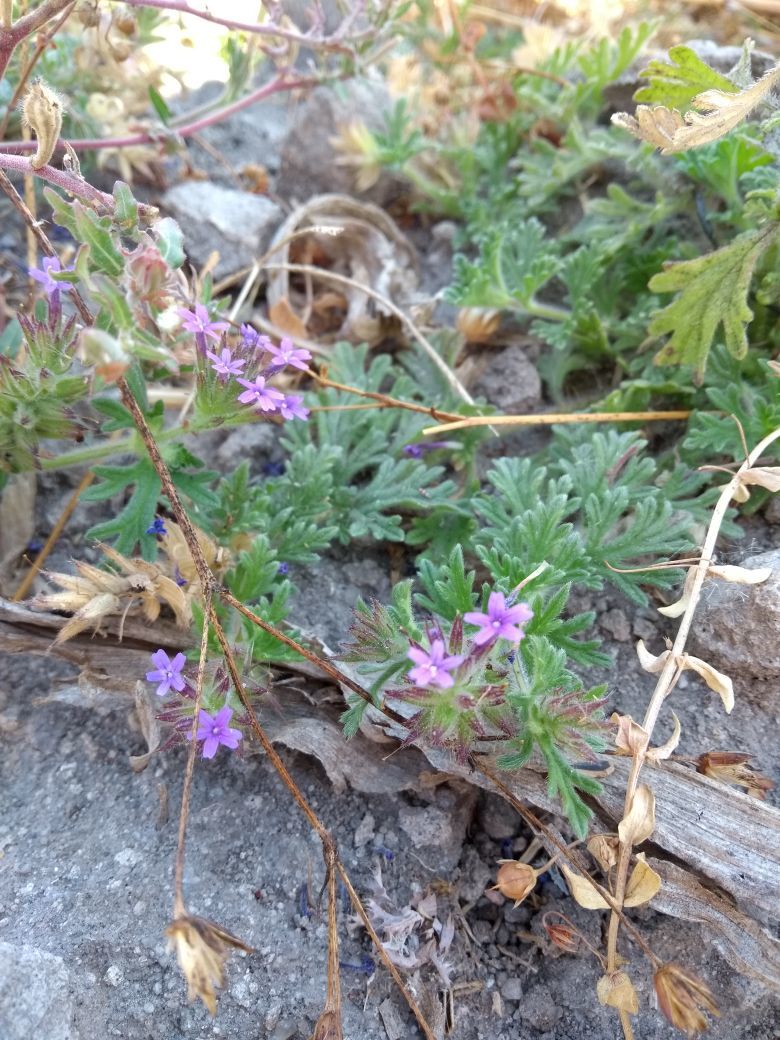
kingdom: Plantae
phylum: Tracheophyta
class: Magnoliopsida
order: Lamiales
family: Verbenaceae
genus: Verbena
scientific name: Verbena bipinnatifida
